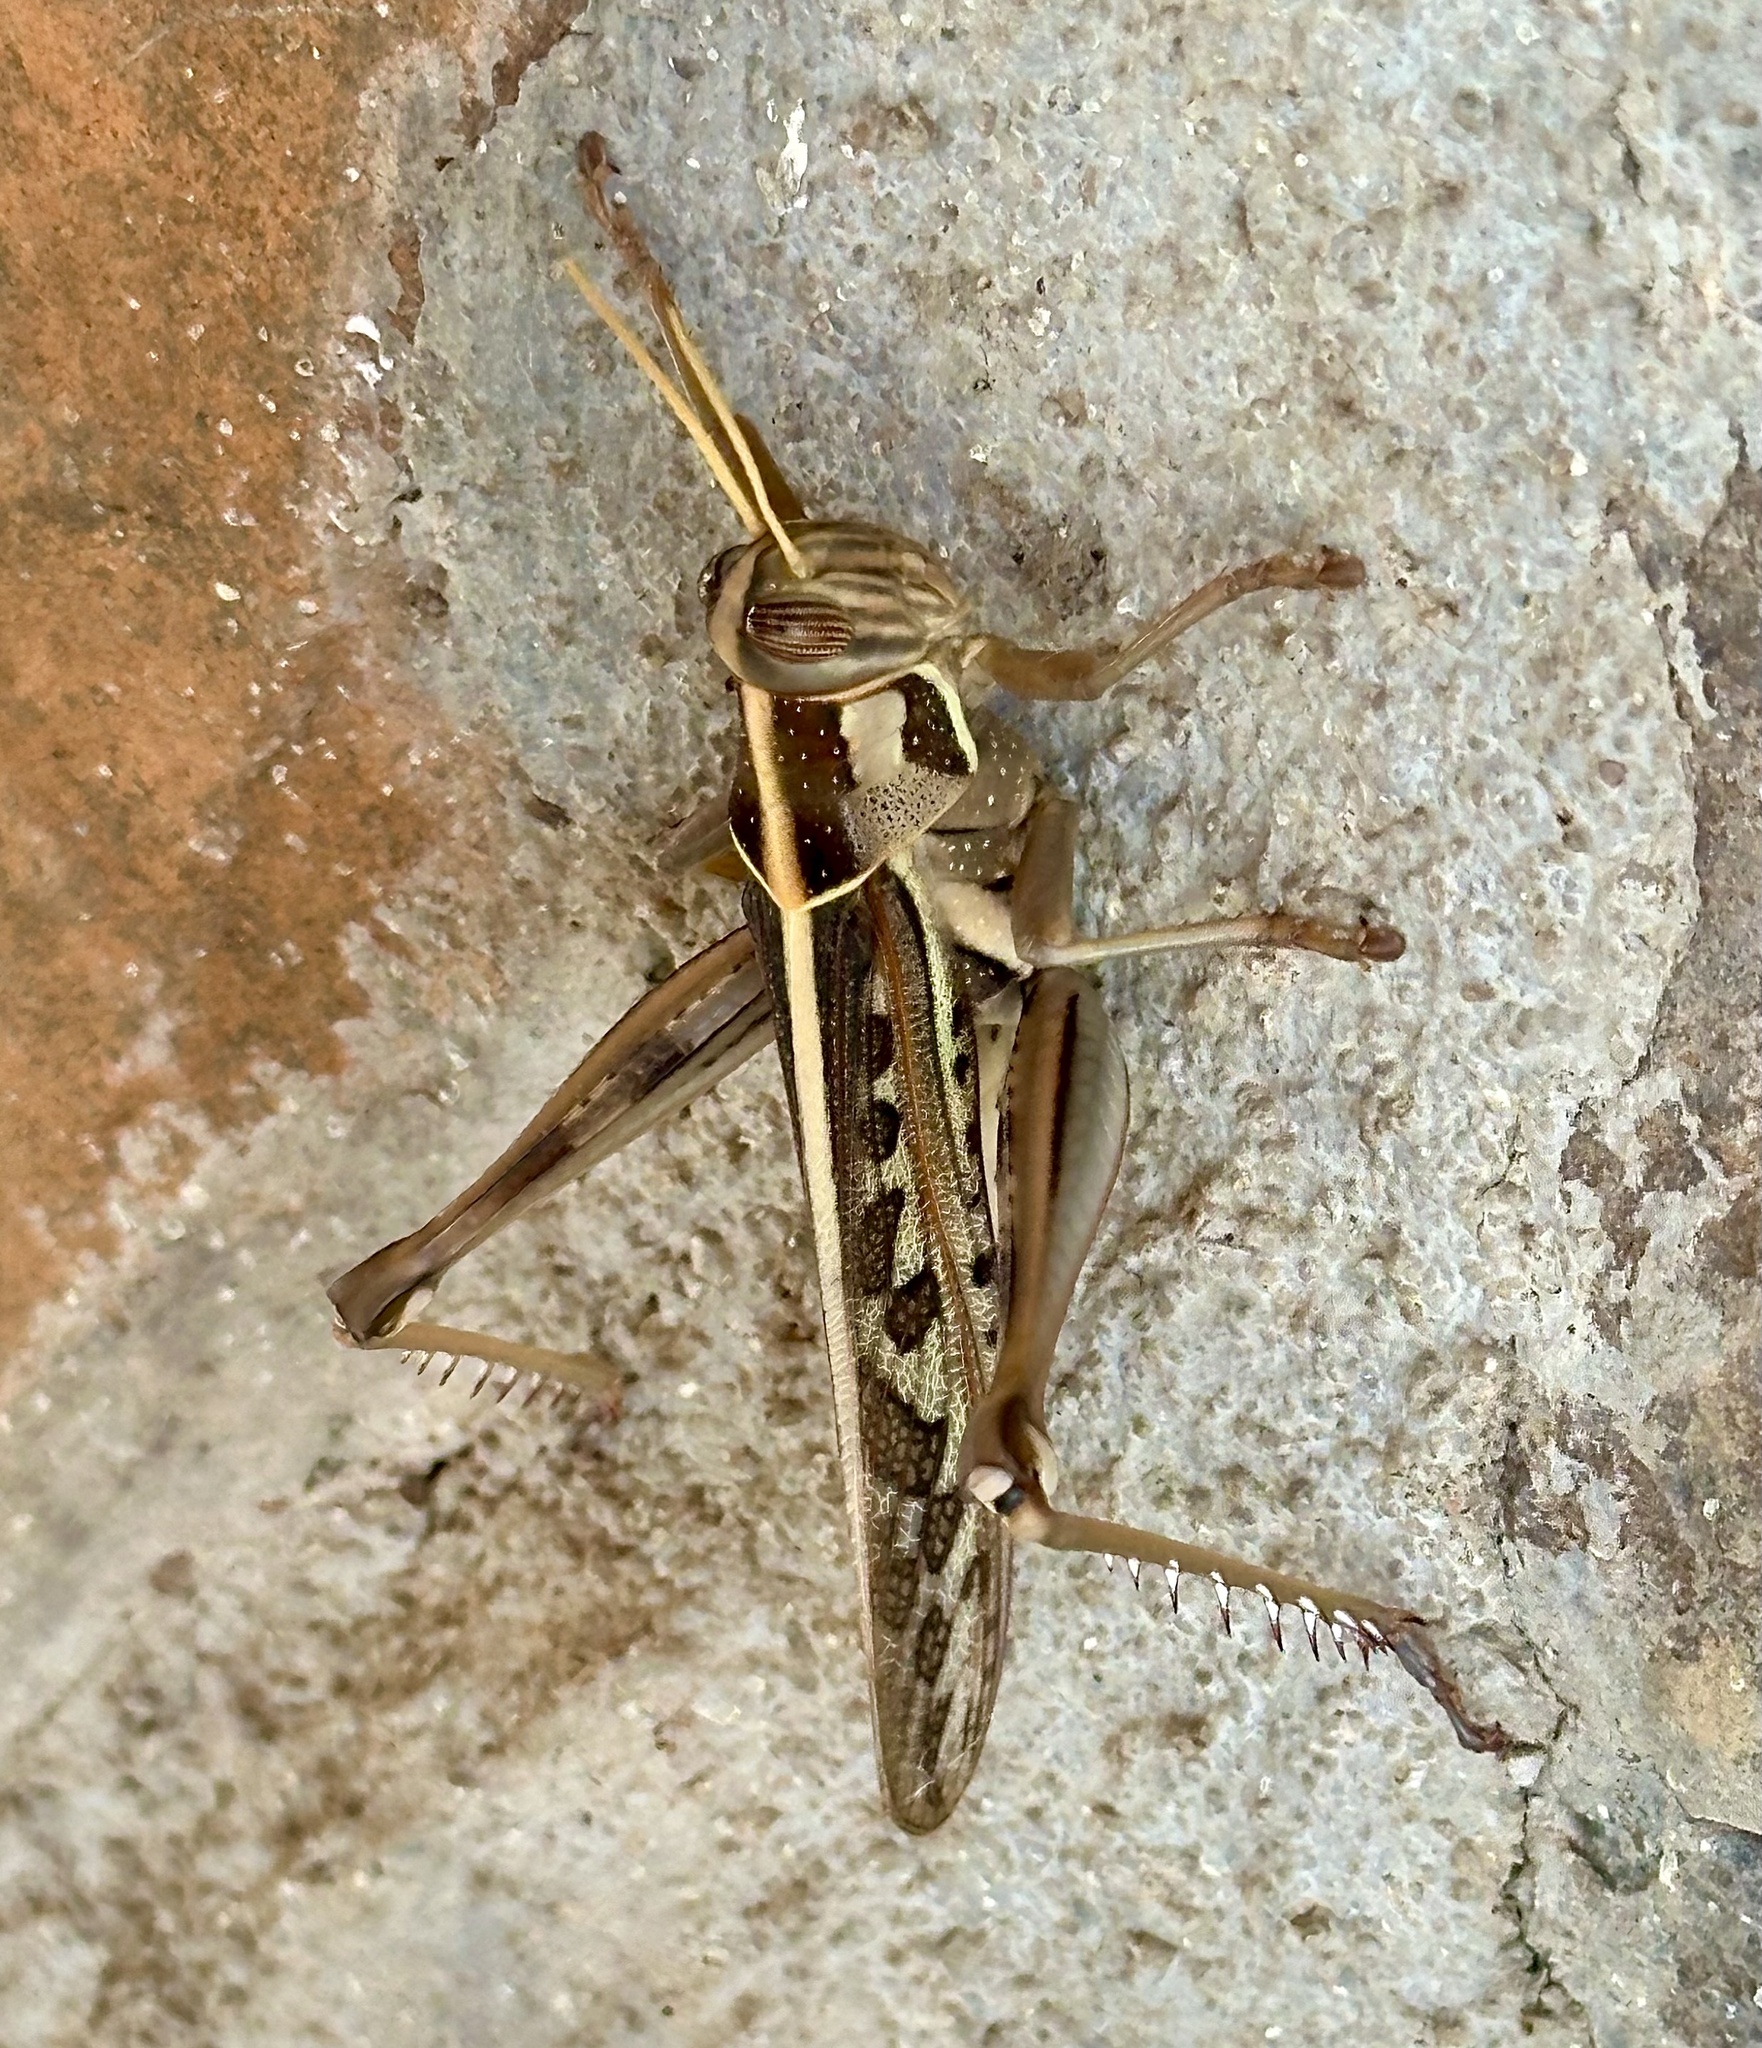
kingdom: Animalia
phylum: Arthropoda
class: Insecta
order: Orthoptera
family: Acrididae
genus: Cyrtacanthacris
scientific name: Cyrtacanthacris tatarica
